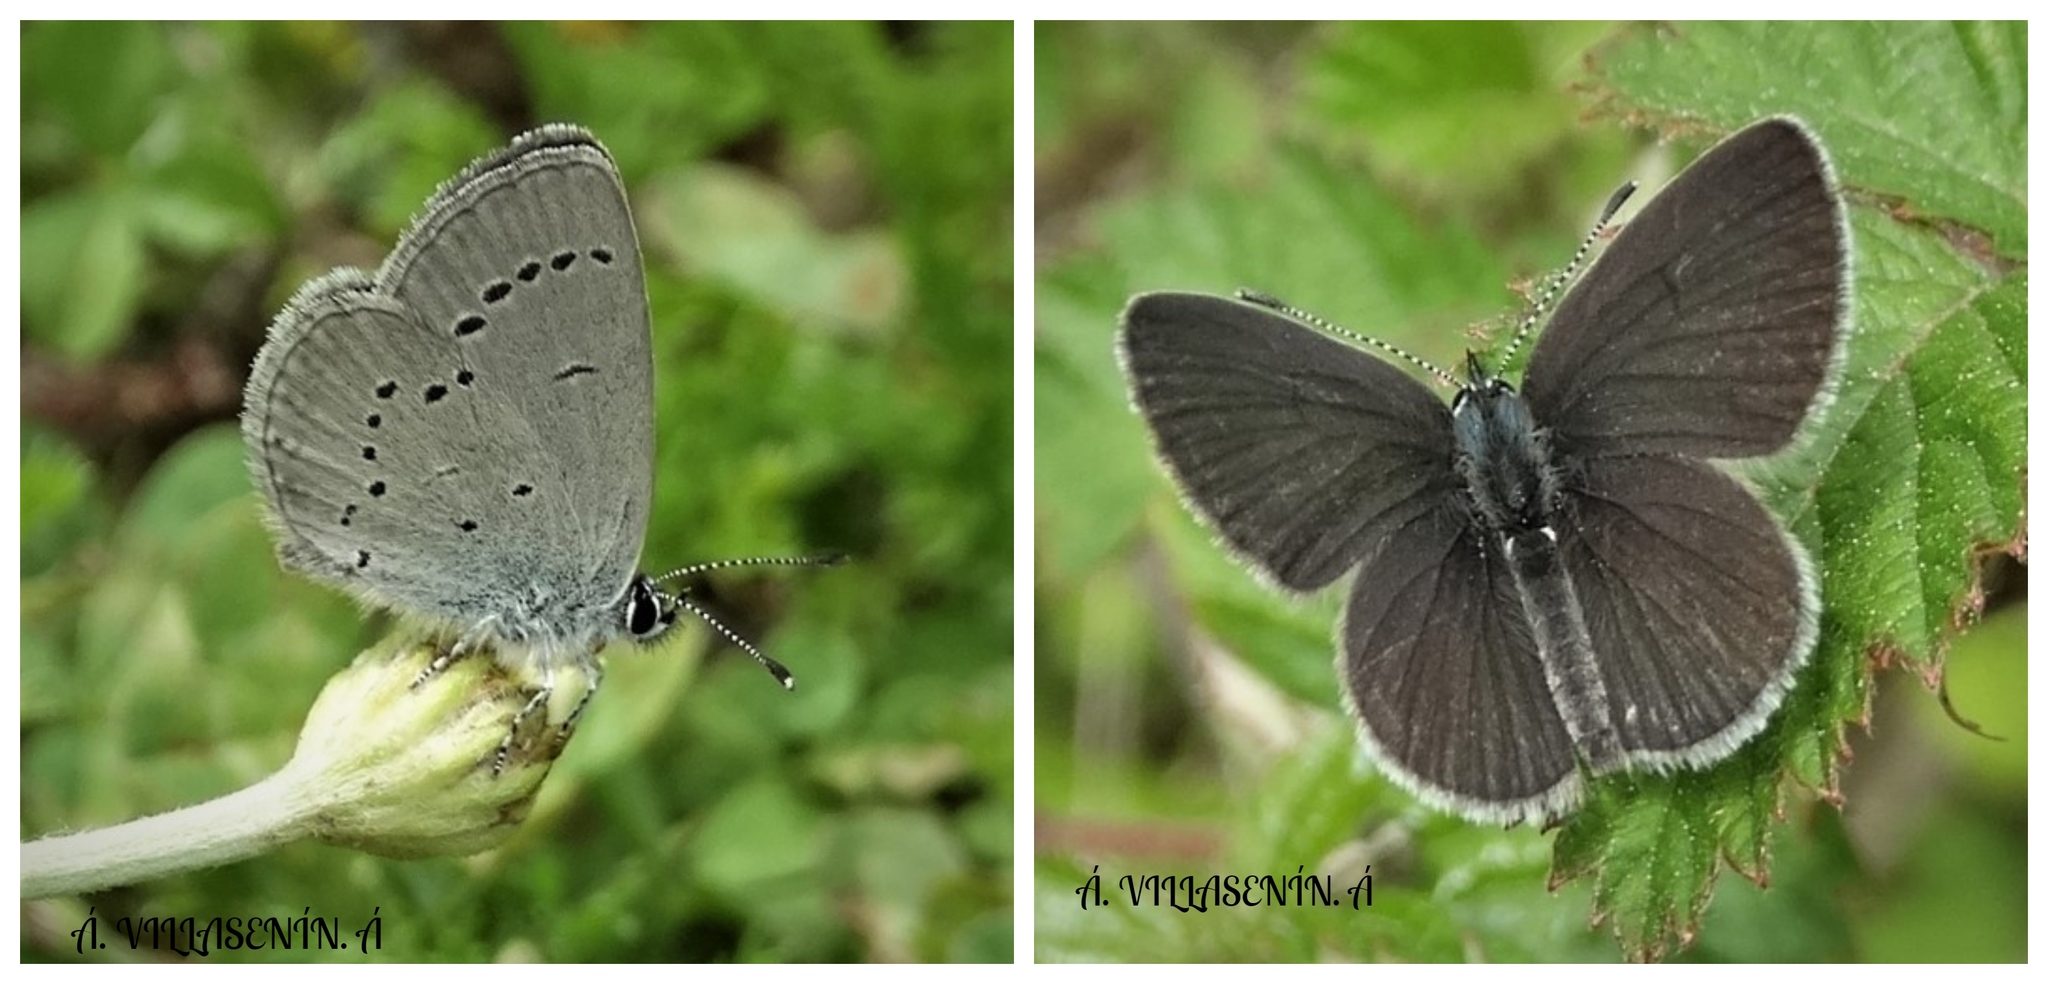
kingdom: Animalia
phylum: Arthropoda
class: Insecta
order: Lepidoptera
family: Lycaenidae
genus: Cupido
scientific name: Cupido minimus
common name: Small blue
